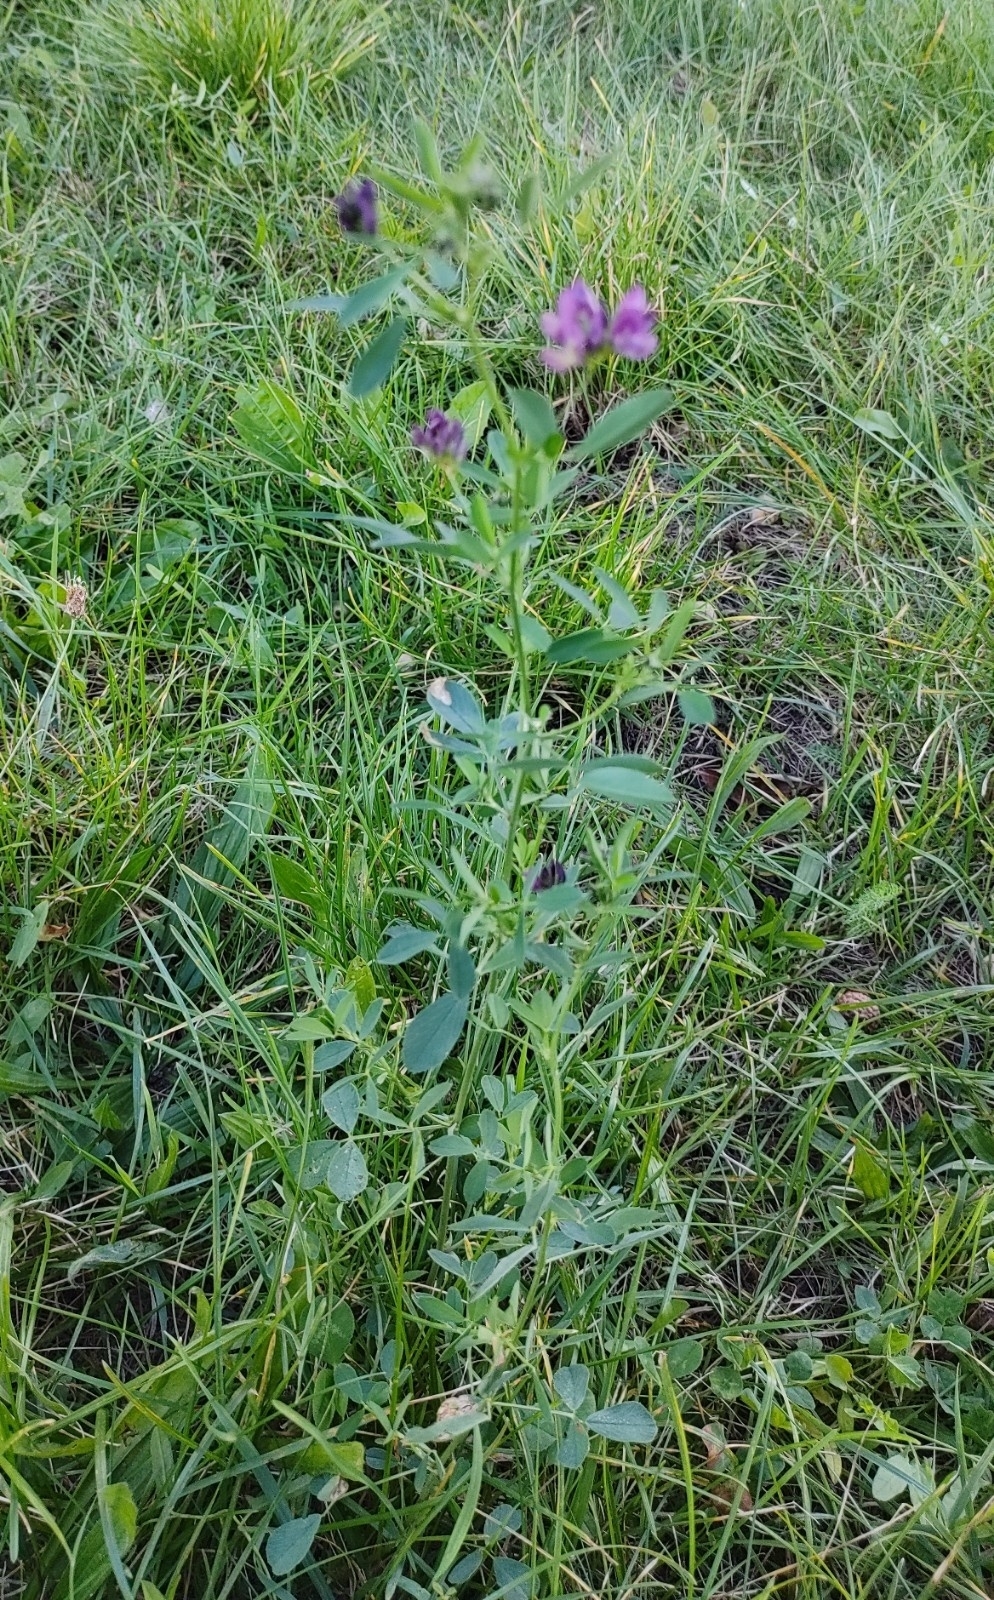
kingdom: Plantae
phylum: Tracheophyta
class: Magnoliopsida
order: Fabales
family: Fabaceae
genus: Medicago
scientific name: Medicago sativa
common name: Alfalfa
